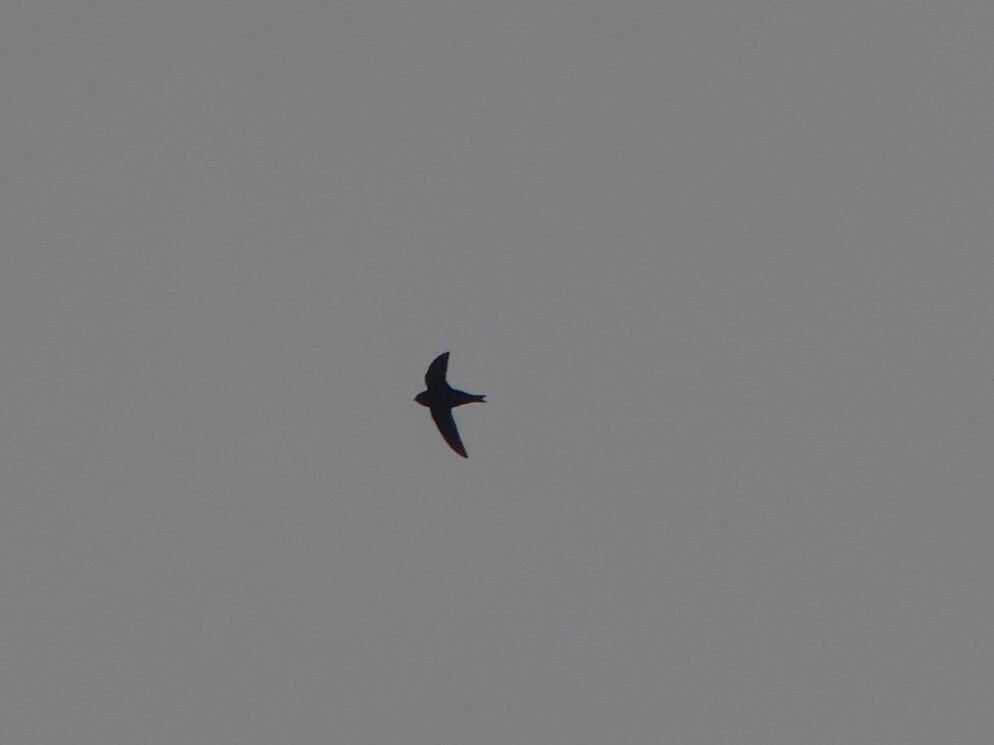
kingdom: Animalia
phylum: Chordata
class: Aves
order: Apodiformes
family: Apodidae
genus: Cypseloides
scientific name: Cypseloides niger
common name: Black swift
